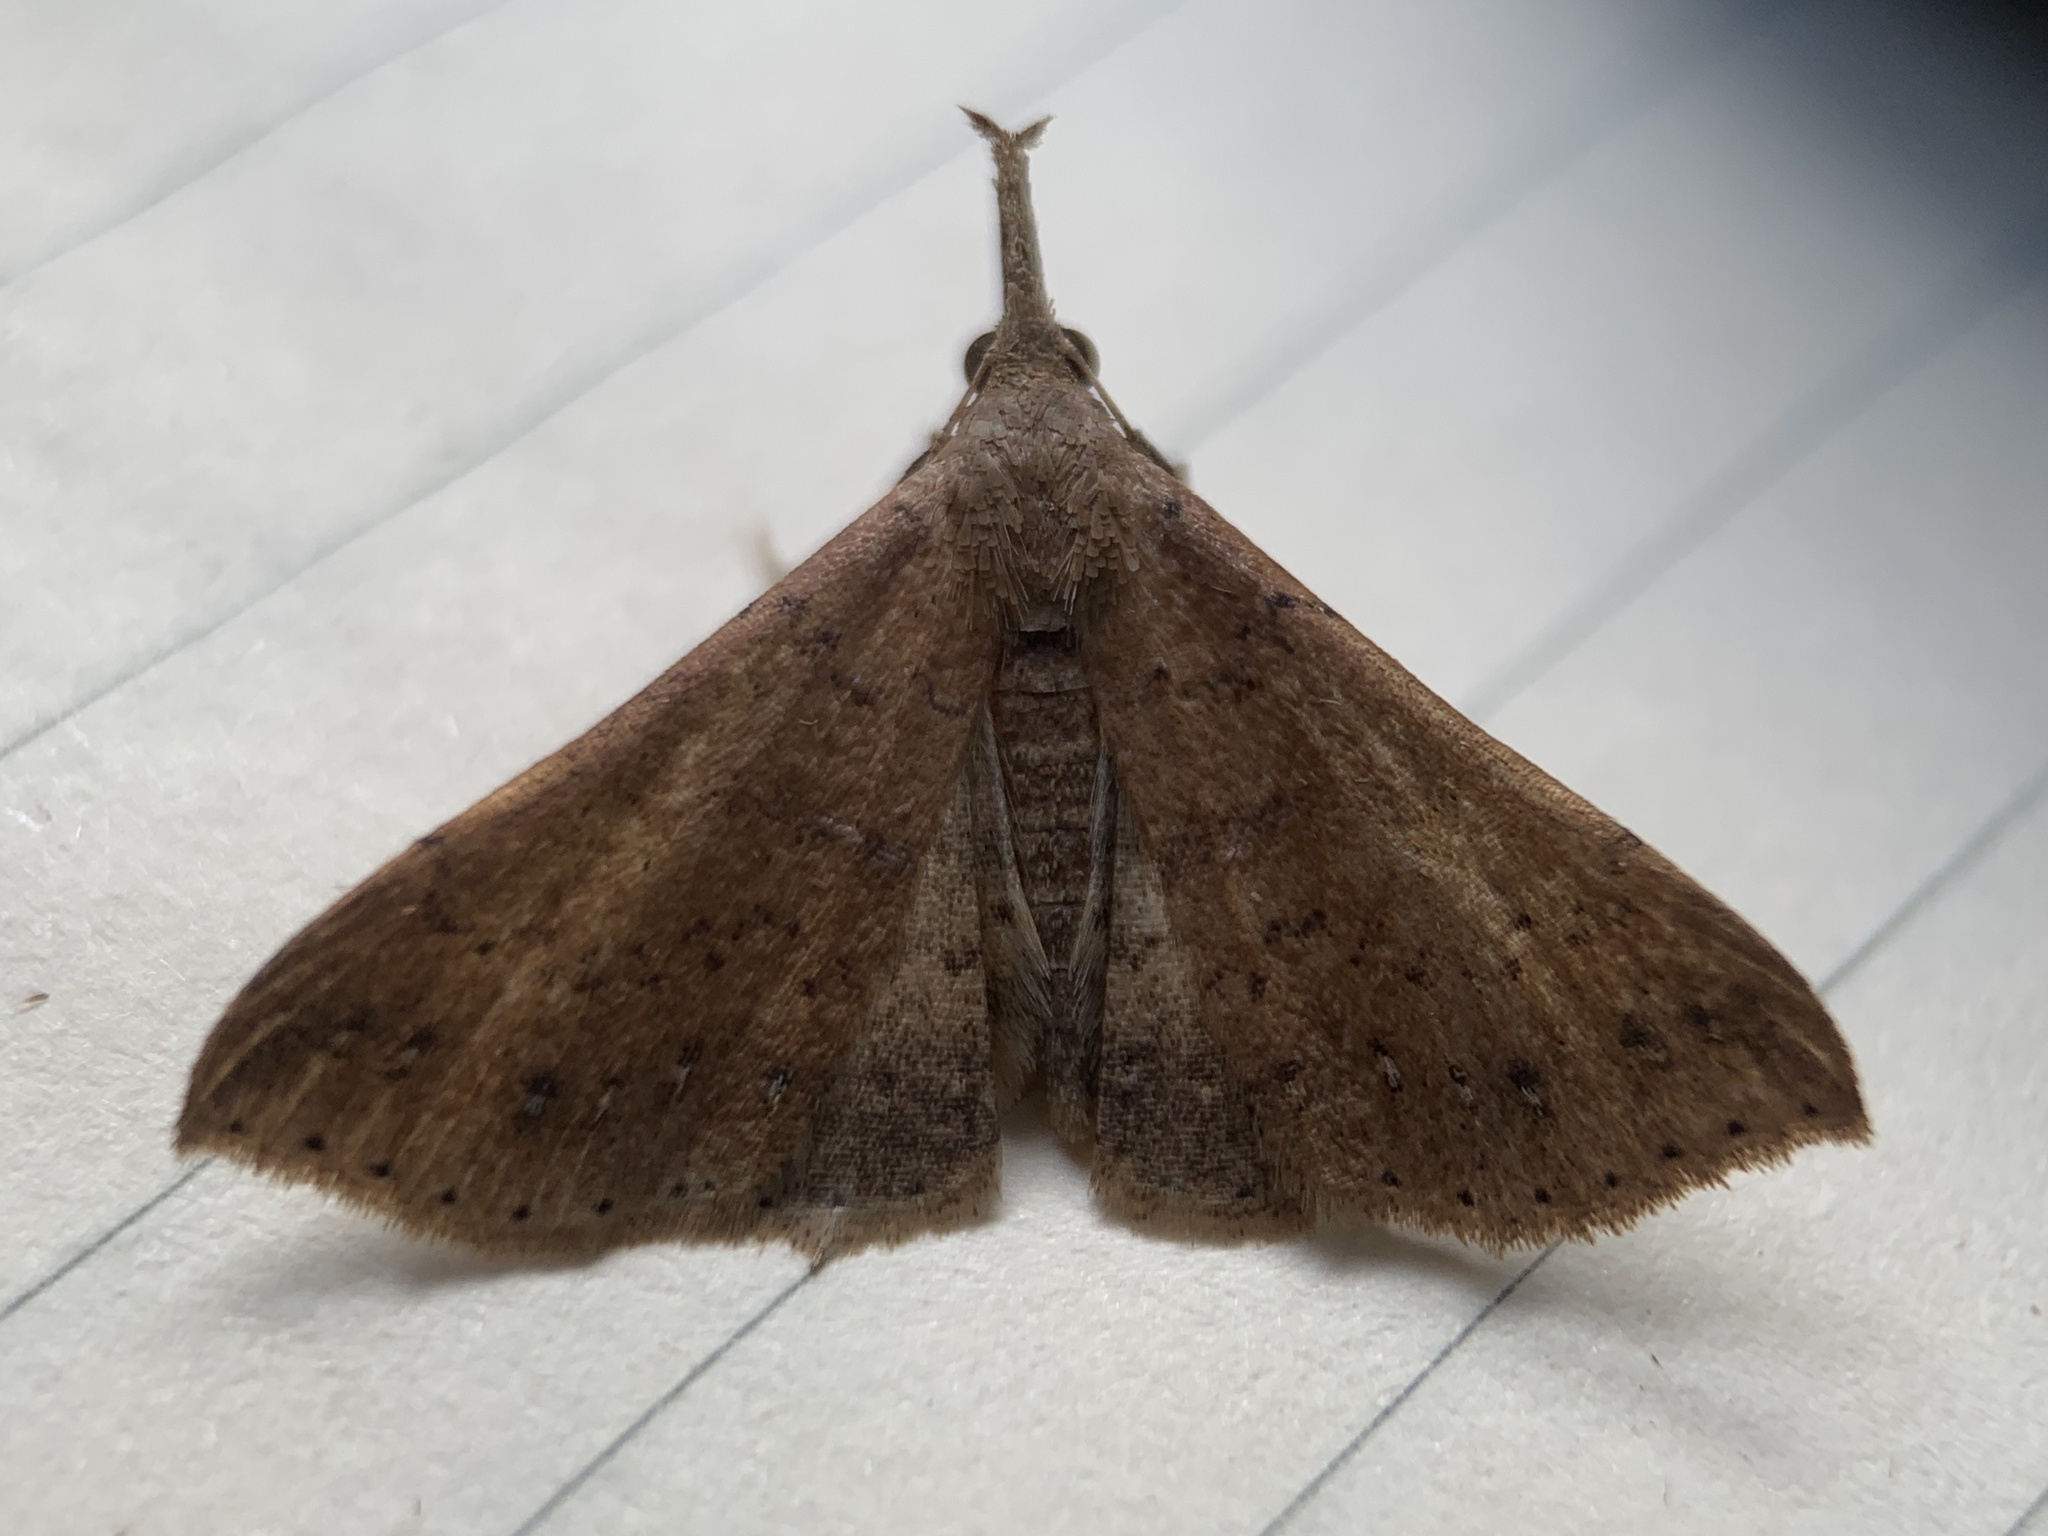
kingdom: Animalia
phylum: Arthropoda
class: Insecta
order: Lepidoptera
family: Erebidae
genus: Renia
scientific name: Renia salusalis
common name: Dotted renia moth
